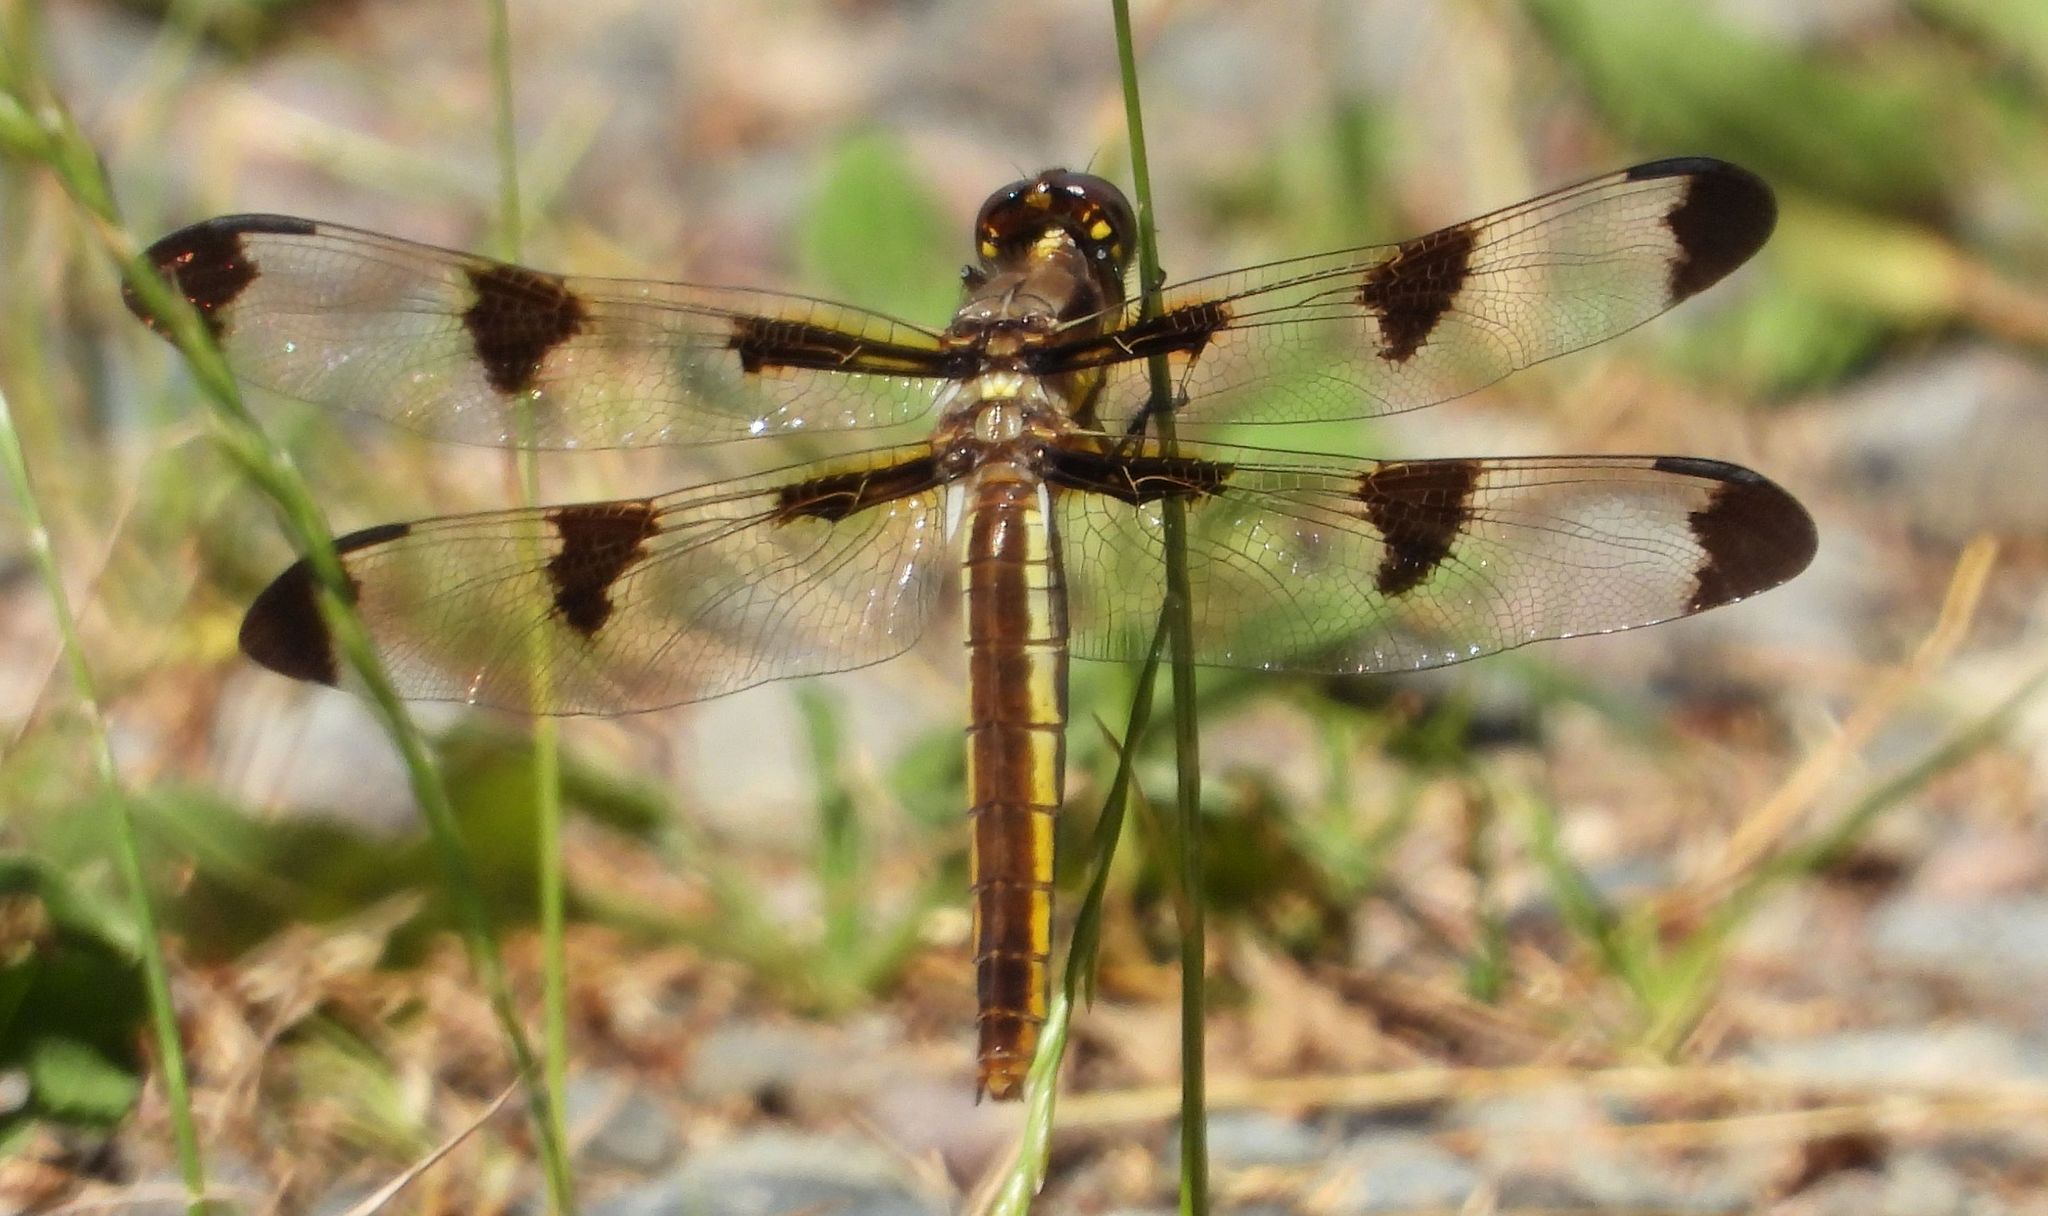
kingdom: Animalia
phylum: Arthropoda
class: Insecta
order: Odonata
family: Libellulidae
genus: Libellula
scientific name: Libellula pulchella
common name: Twelve-spotted skimmer
